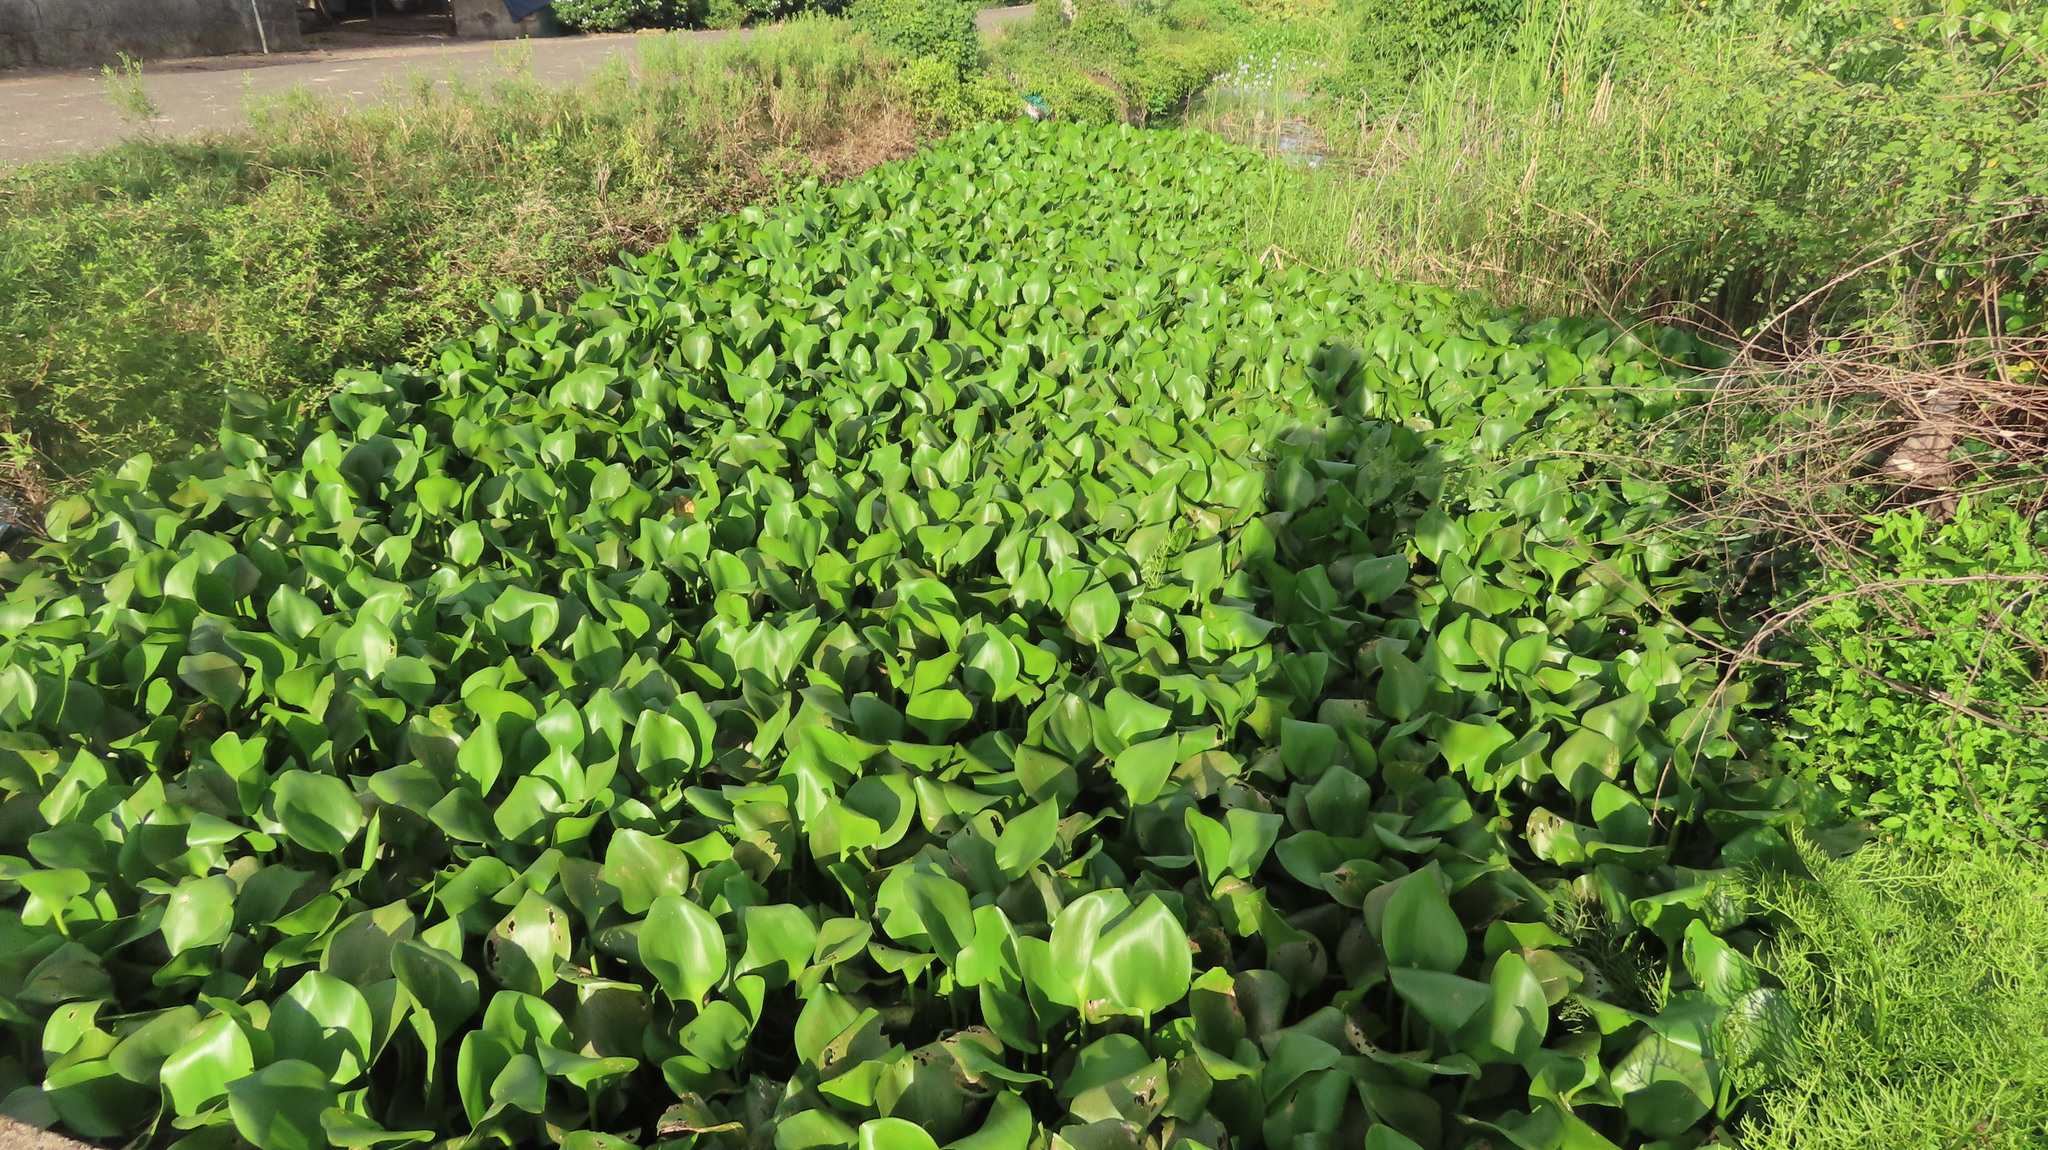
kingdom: Plantae
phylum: Tracheophyta
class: Liliopsida
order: Commelinales
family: Pontederiaceae
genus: Pontederia
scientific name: Pontederia crassipes
